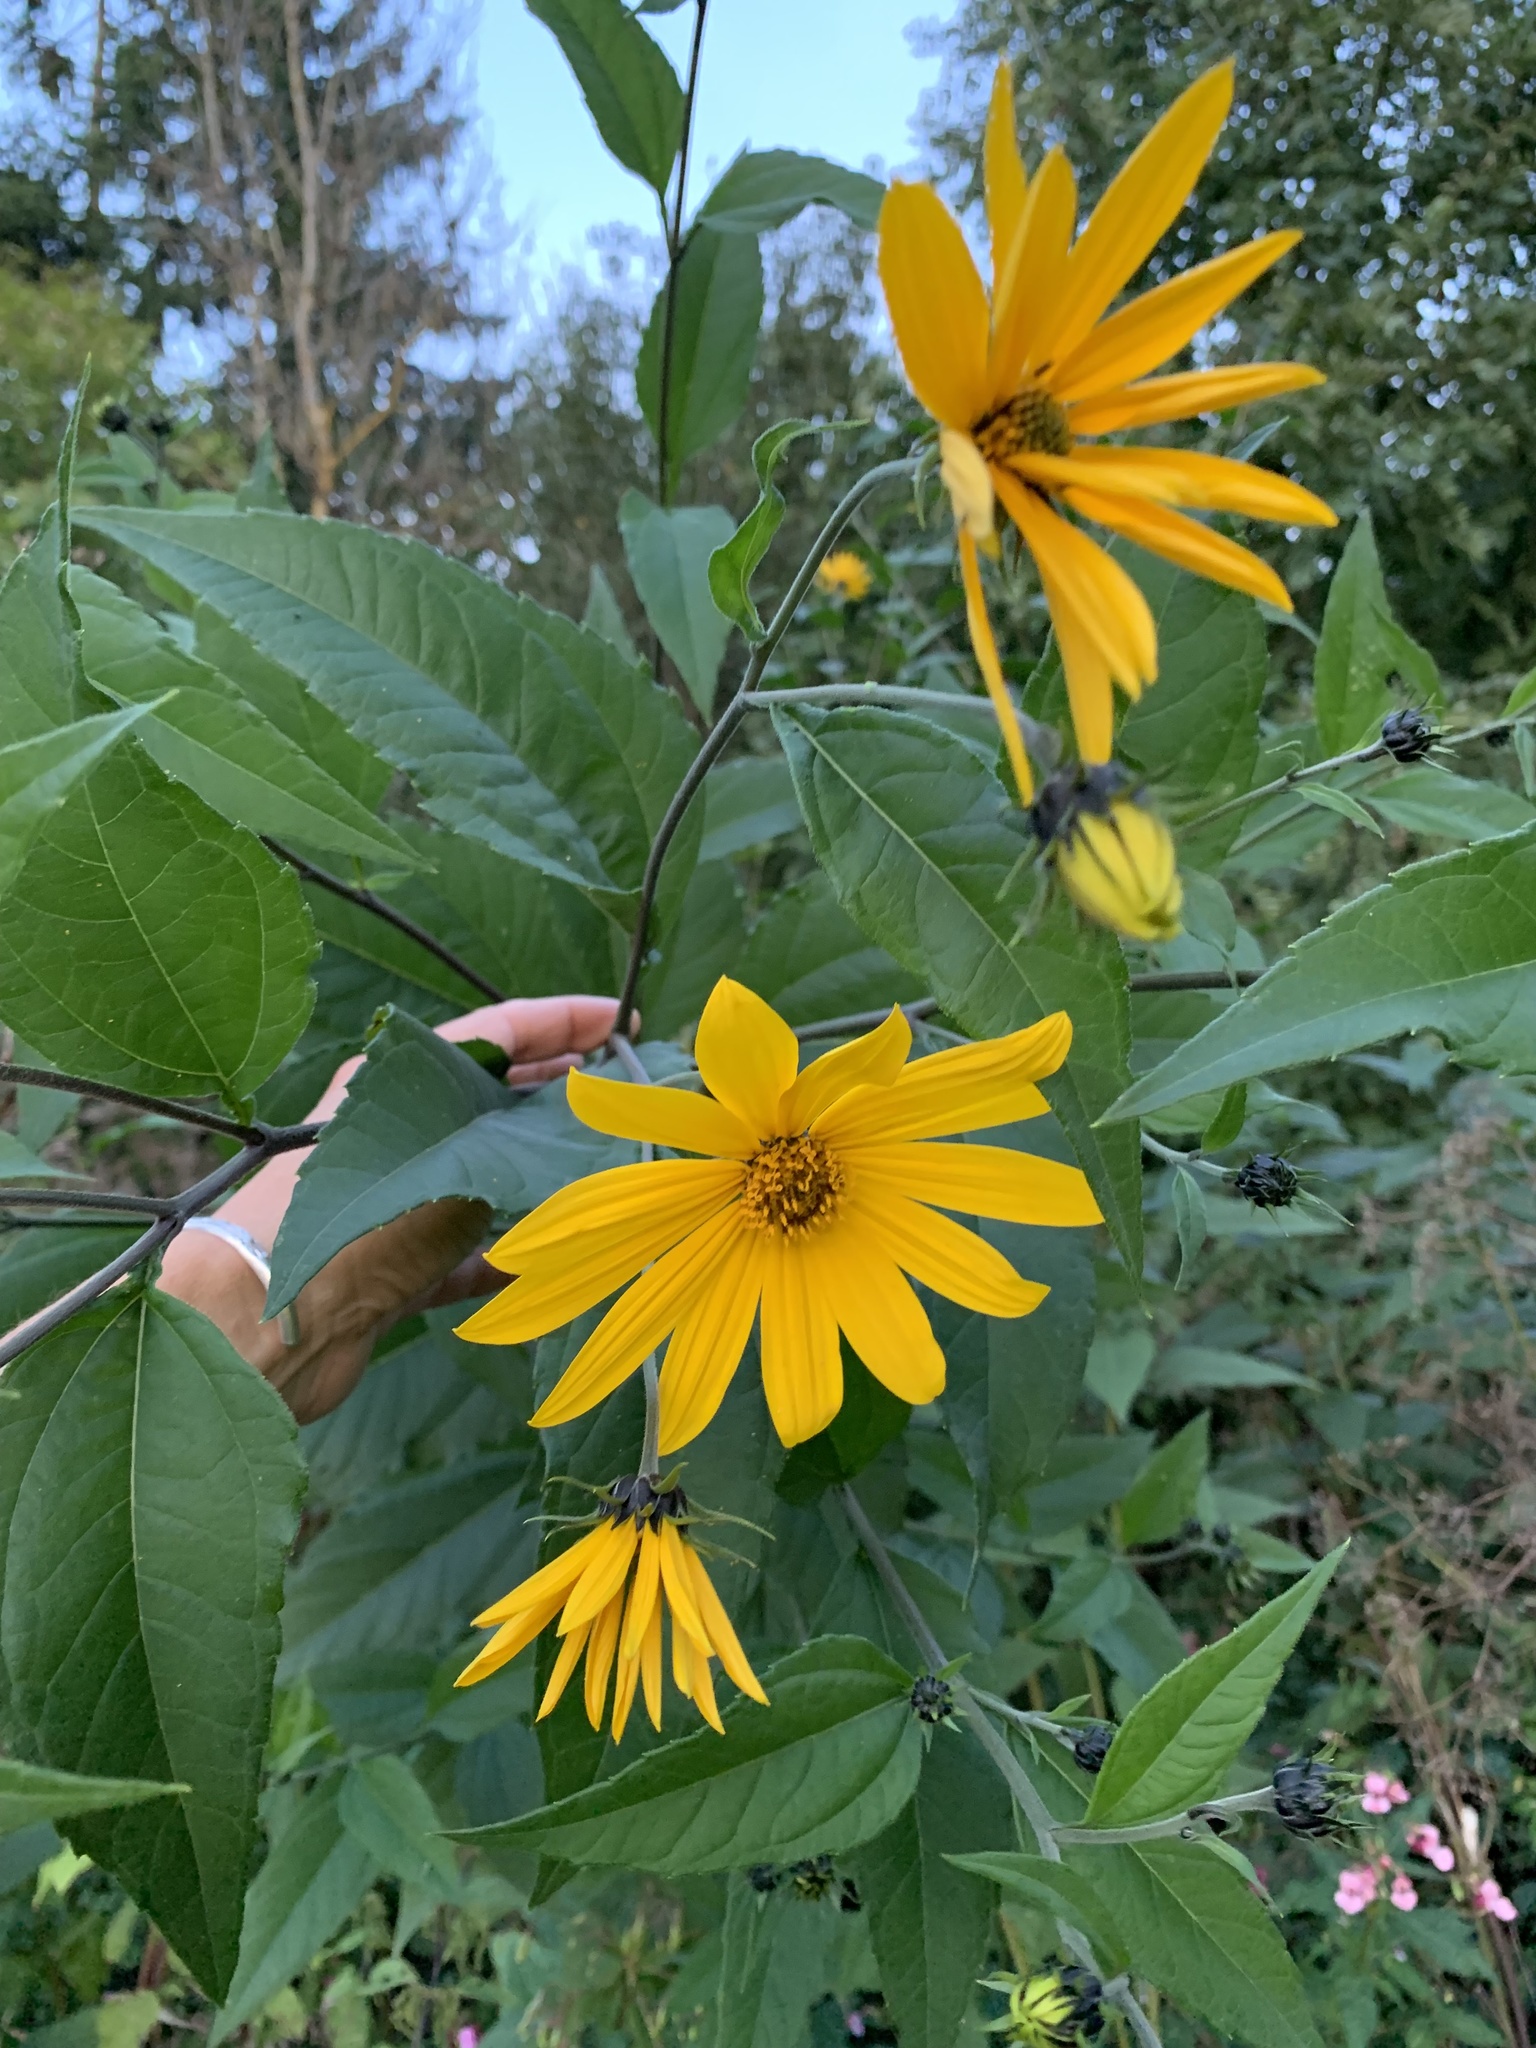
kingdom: Plantae
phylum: Tracheophyta
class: Magnoliopsida
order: Asterales
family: Asteraceae
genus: Helianthus
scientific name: Helianthus tuberosus
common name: Jerusalem artichoke
